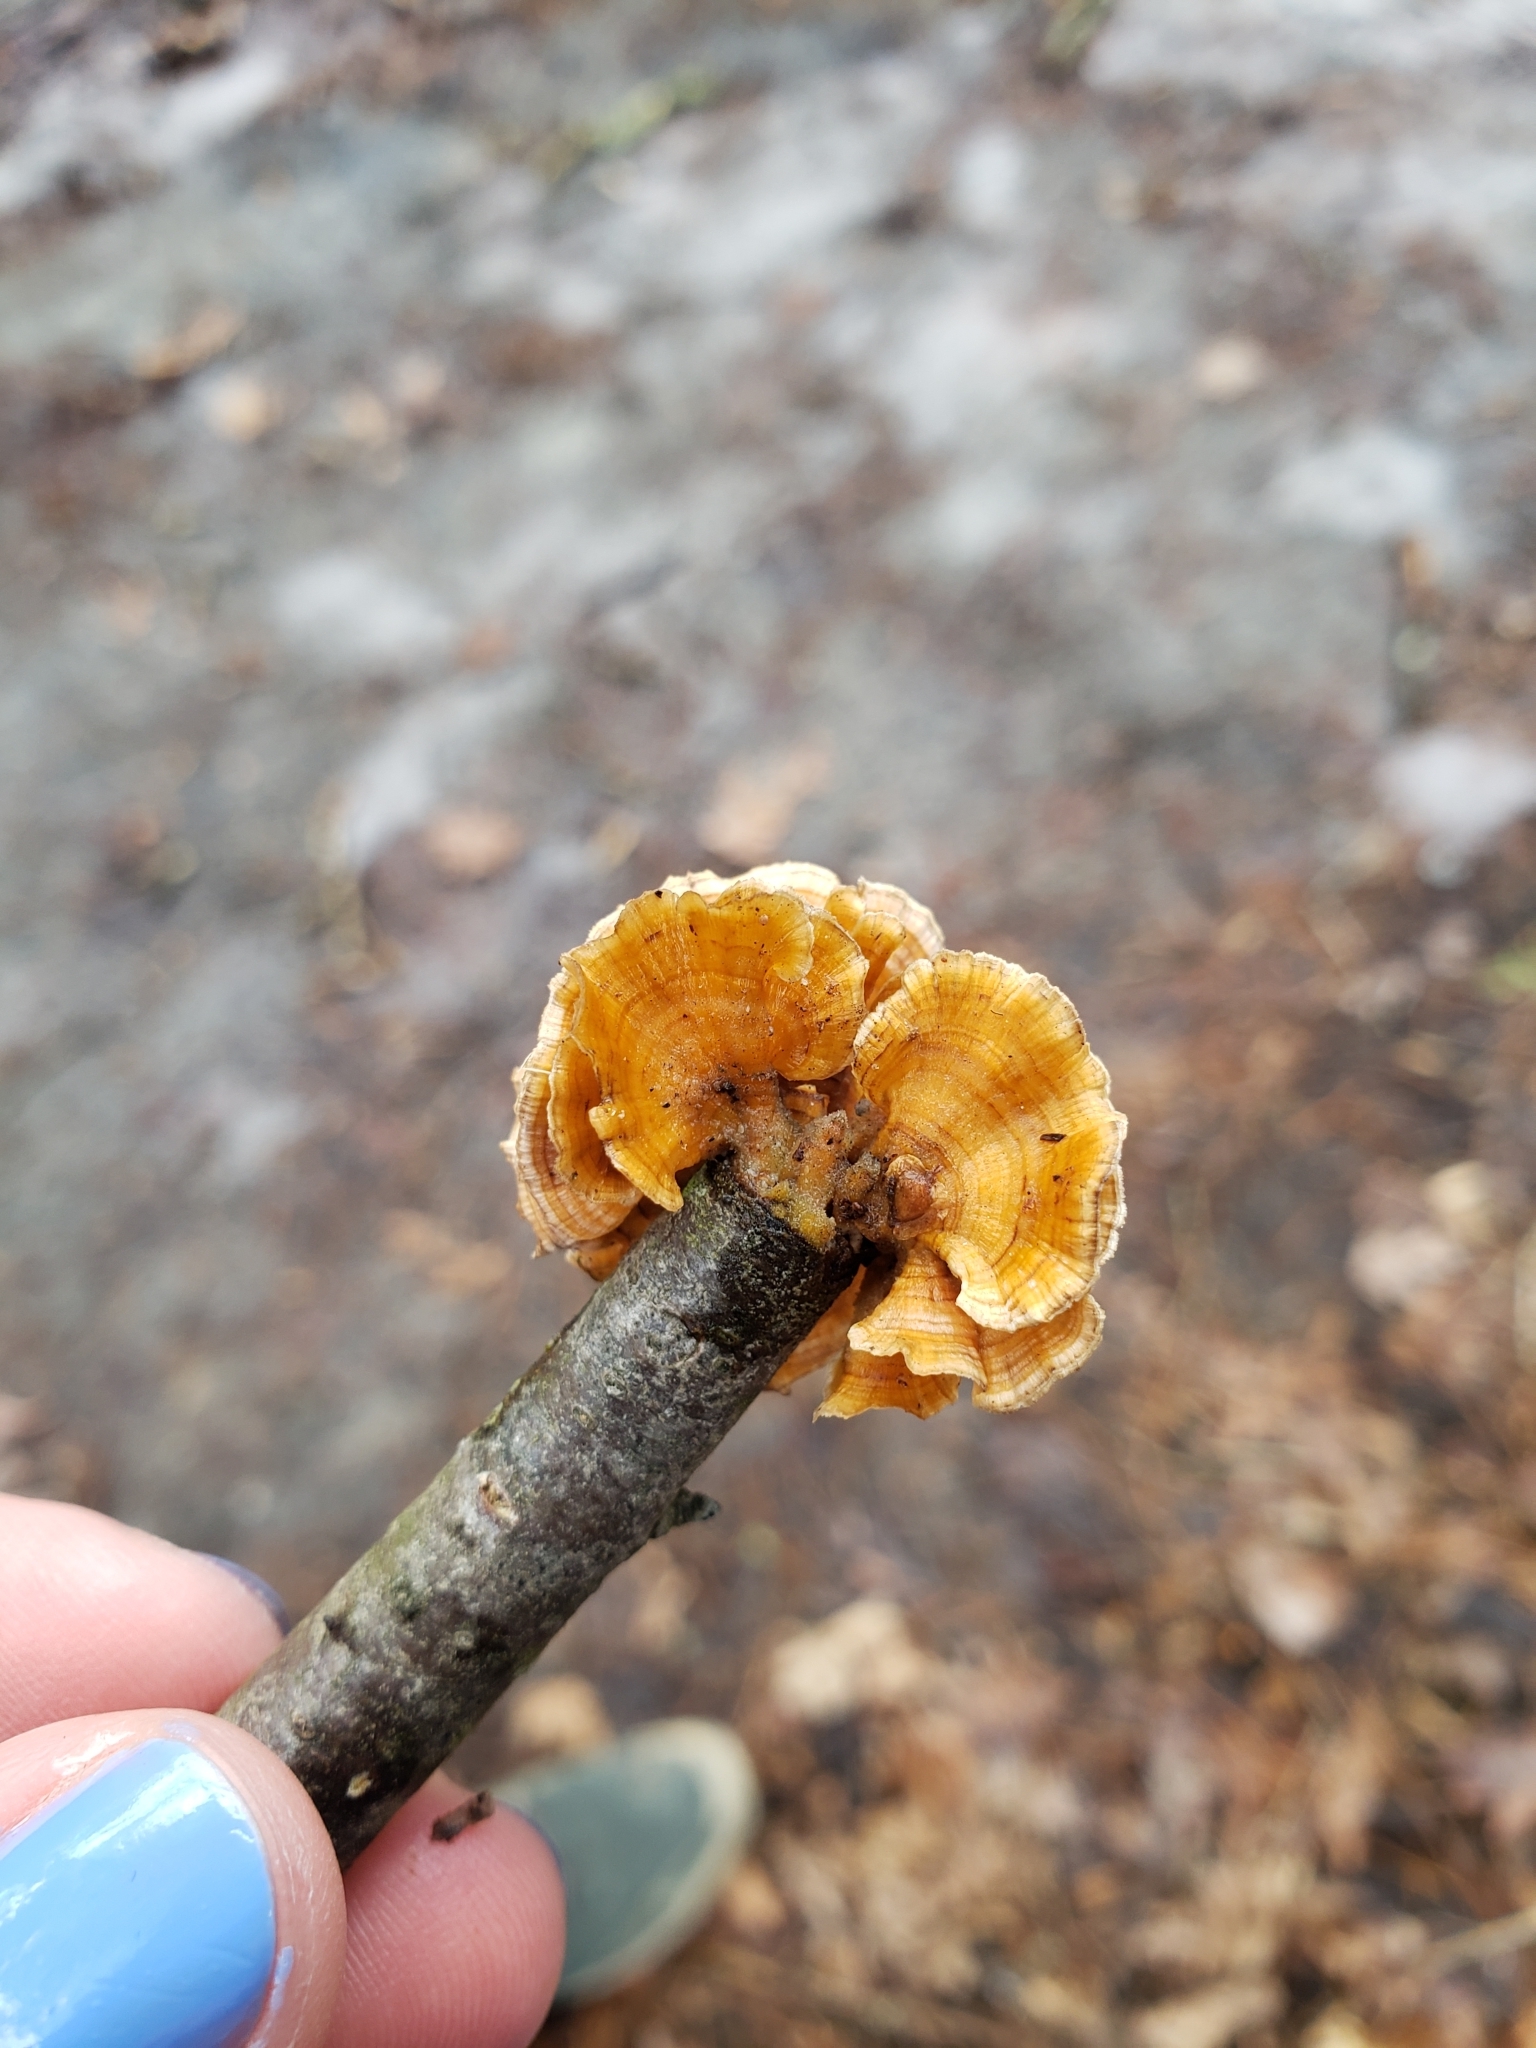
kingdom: Fungi
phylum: Basidiomycota
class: Agaricomycetes
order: Russulales
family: Stereaceae
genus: Stereum
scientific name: Stereum complicatum
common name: Crowded parchment
